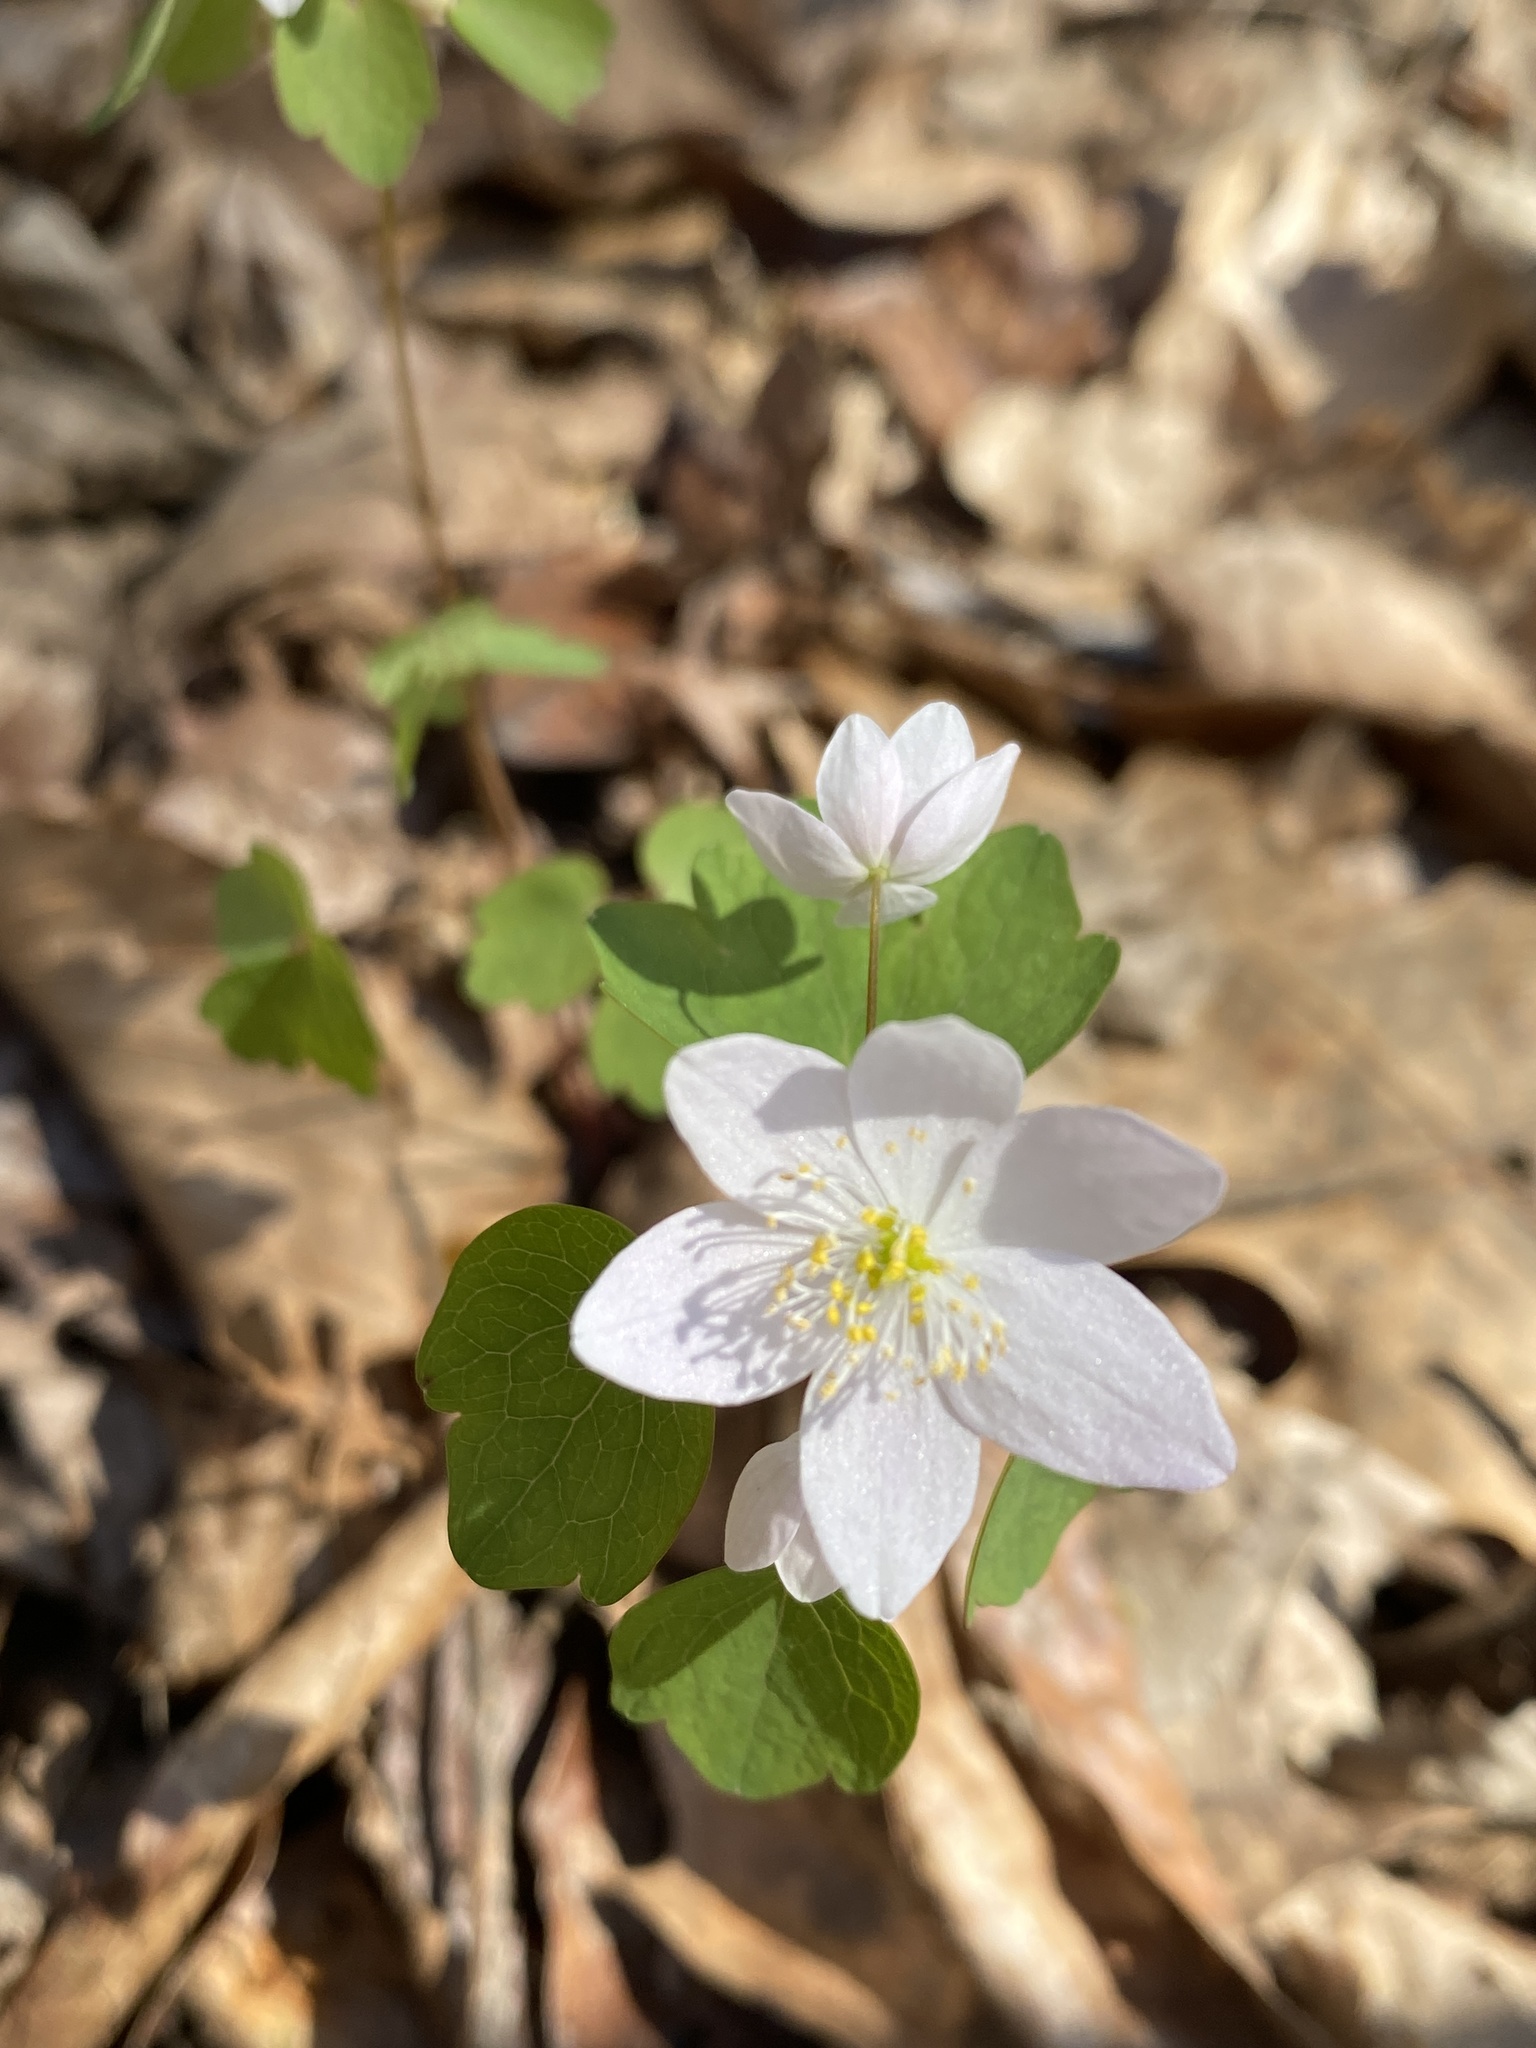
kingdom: Plantae
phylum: Tracheophyta
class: Magnoliopsida
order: Ranunculales
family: Ranunculaceae
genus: Thalictrum
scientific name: Thalictrum thalictroides
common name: Rue-anemone
